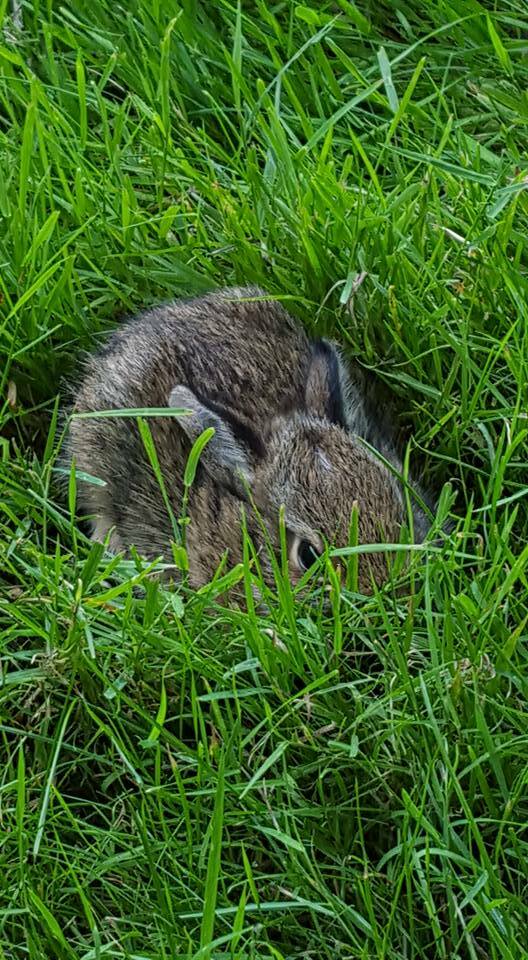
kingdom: Animalia
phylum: Chordata
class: Mammalia
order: Lagomorpha
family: Leporidae
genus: Sylvilagus
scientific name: Sylvilagus floridanus
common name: Eastern cottontail
